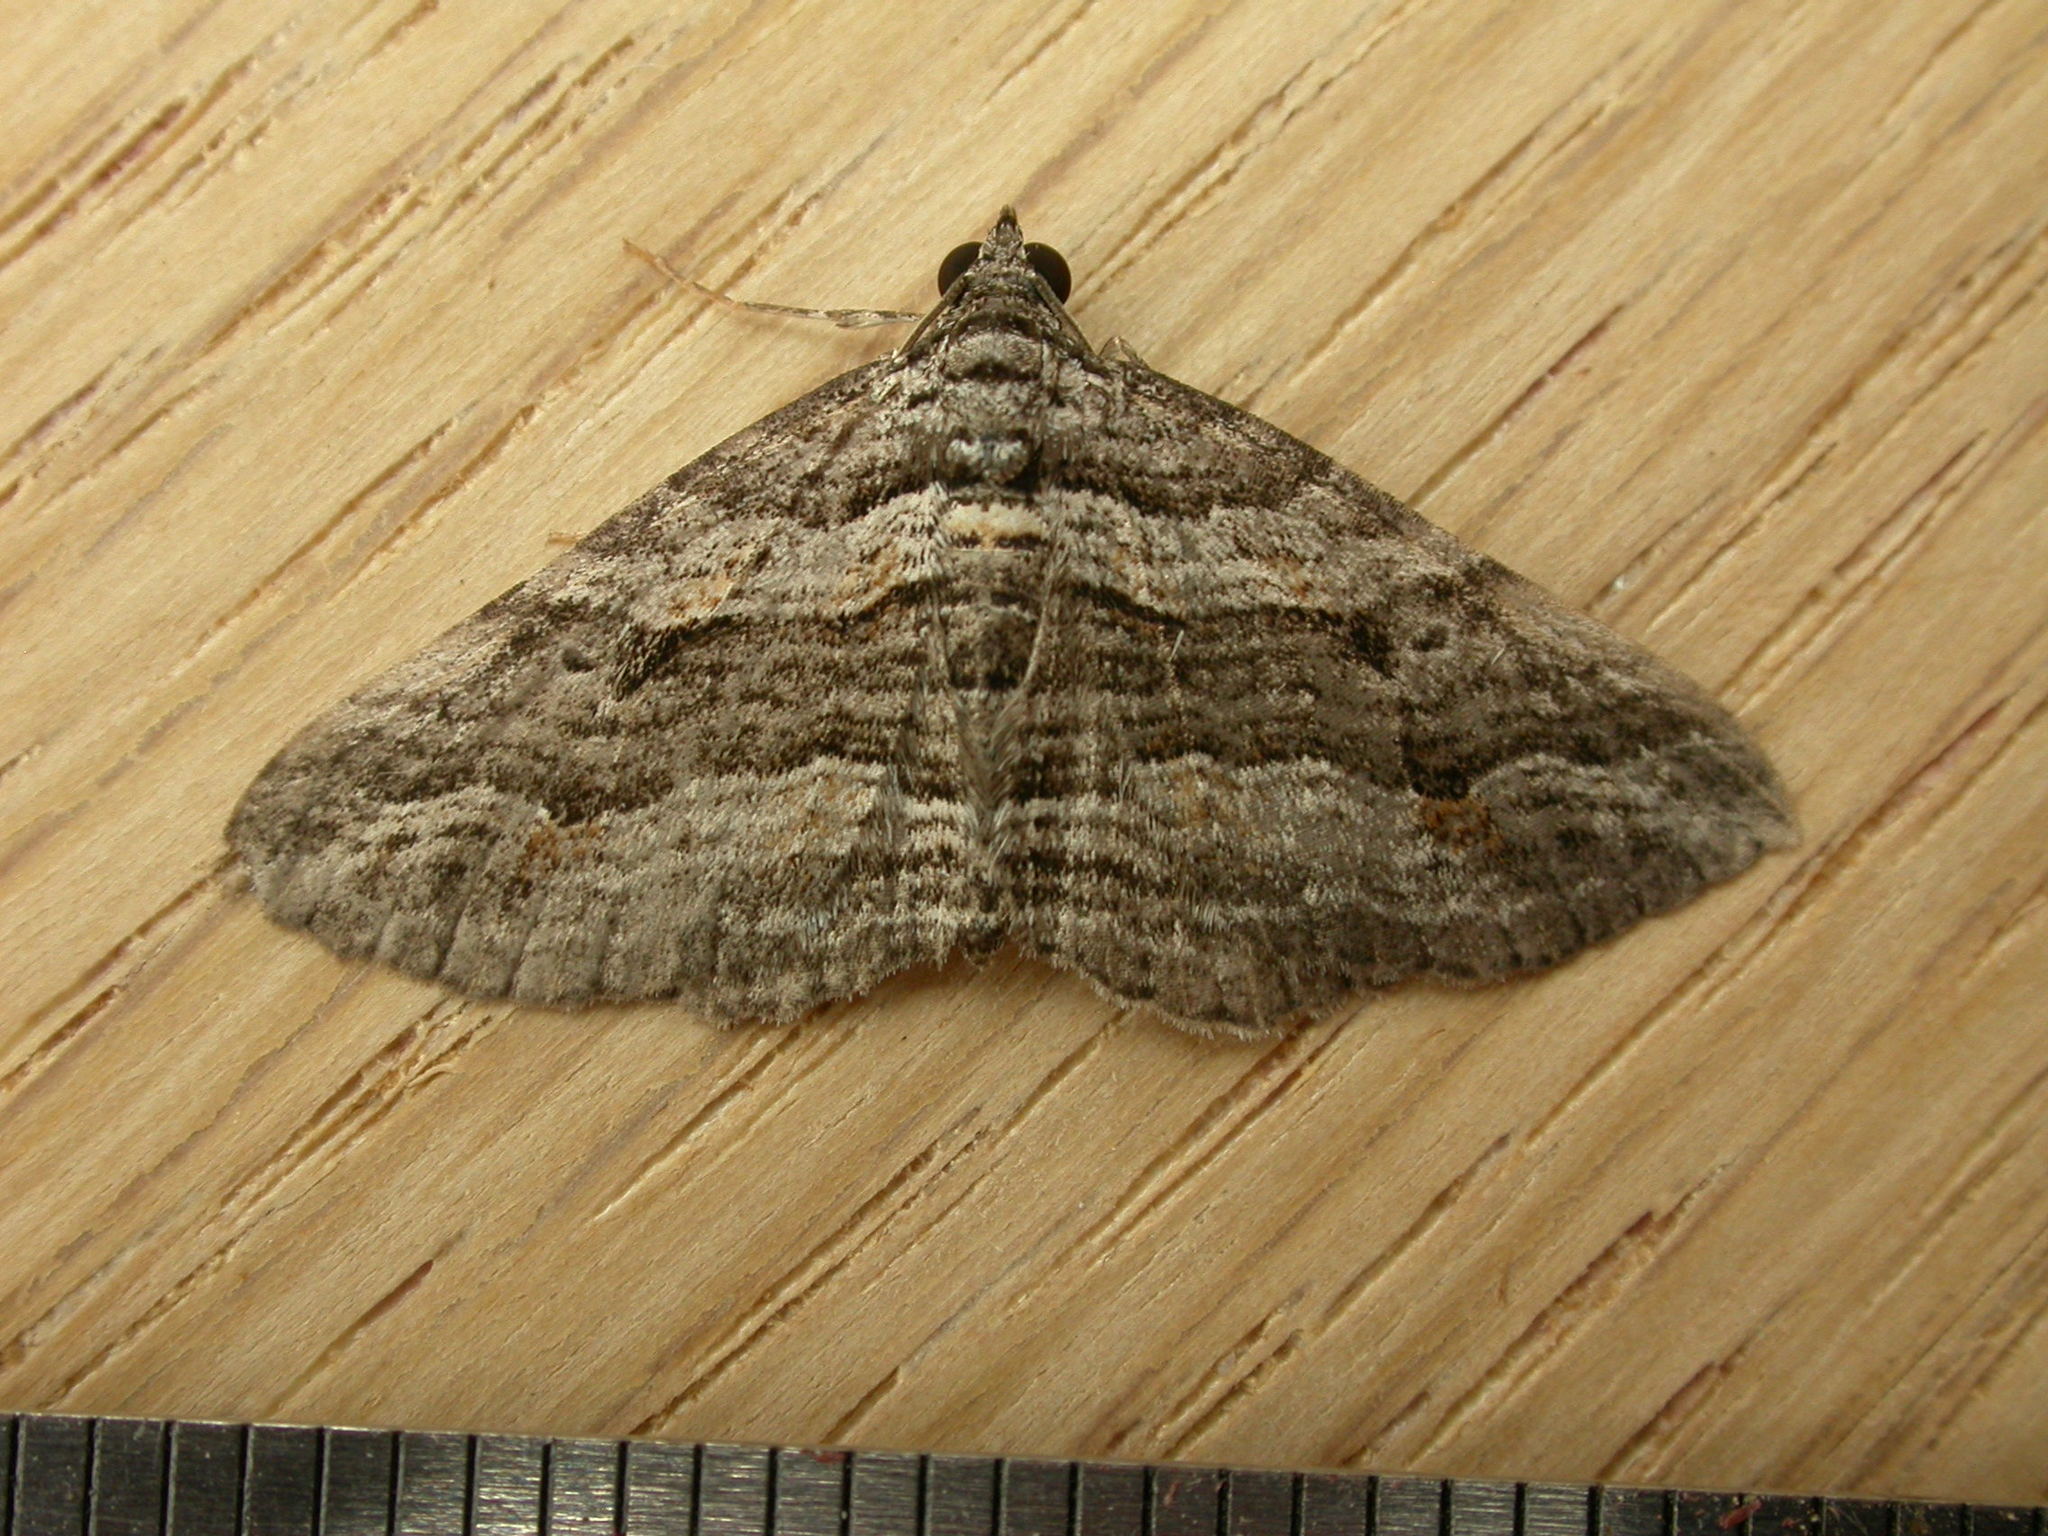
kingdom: Animalia
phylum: Arthropoda
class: Insecta
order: Lepidoptera
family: Geometridae
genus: Chrysolarentia
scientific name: Chrysolarentia severata
